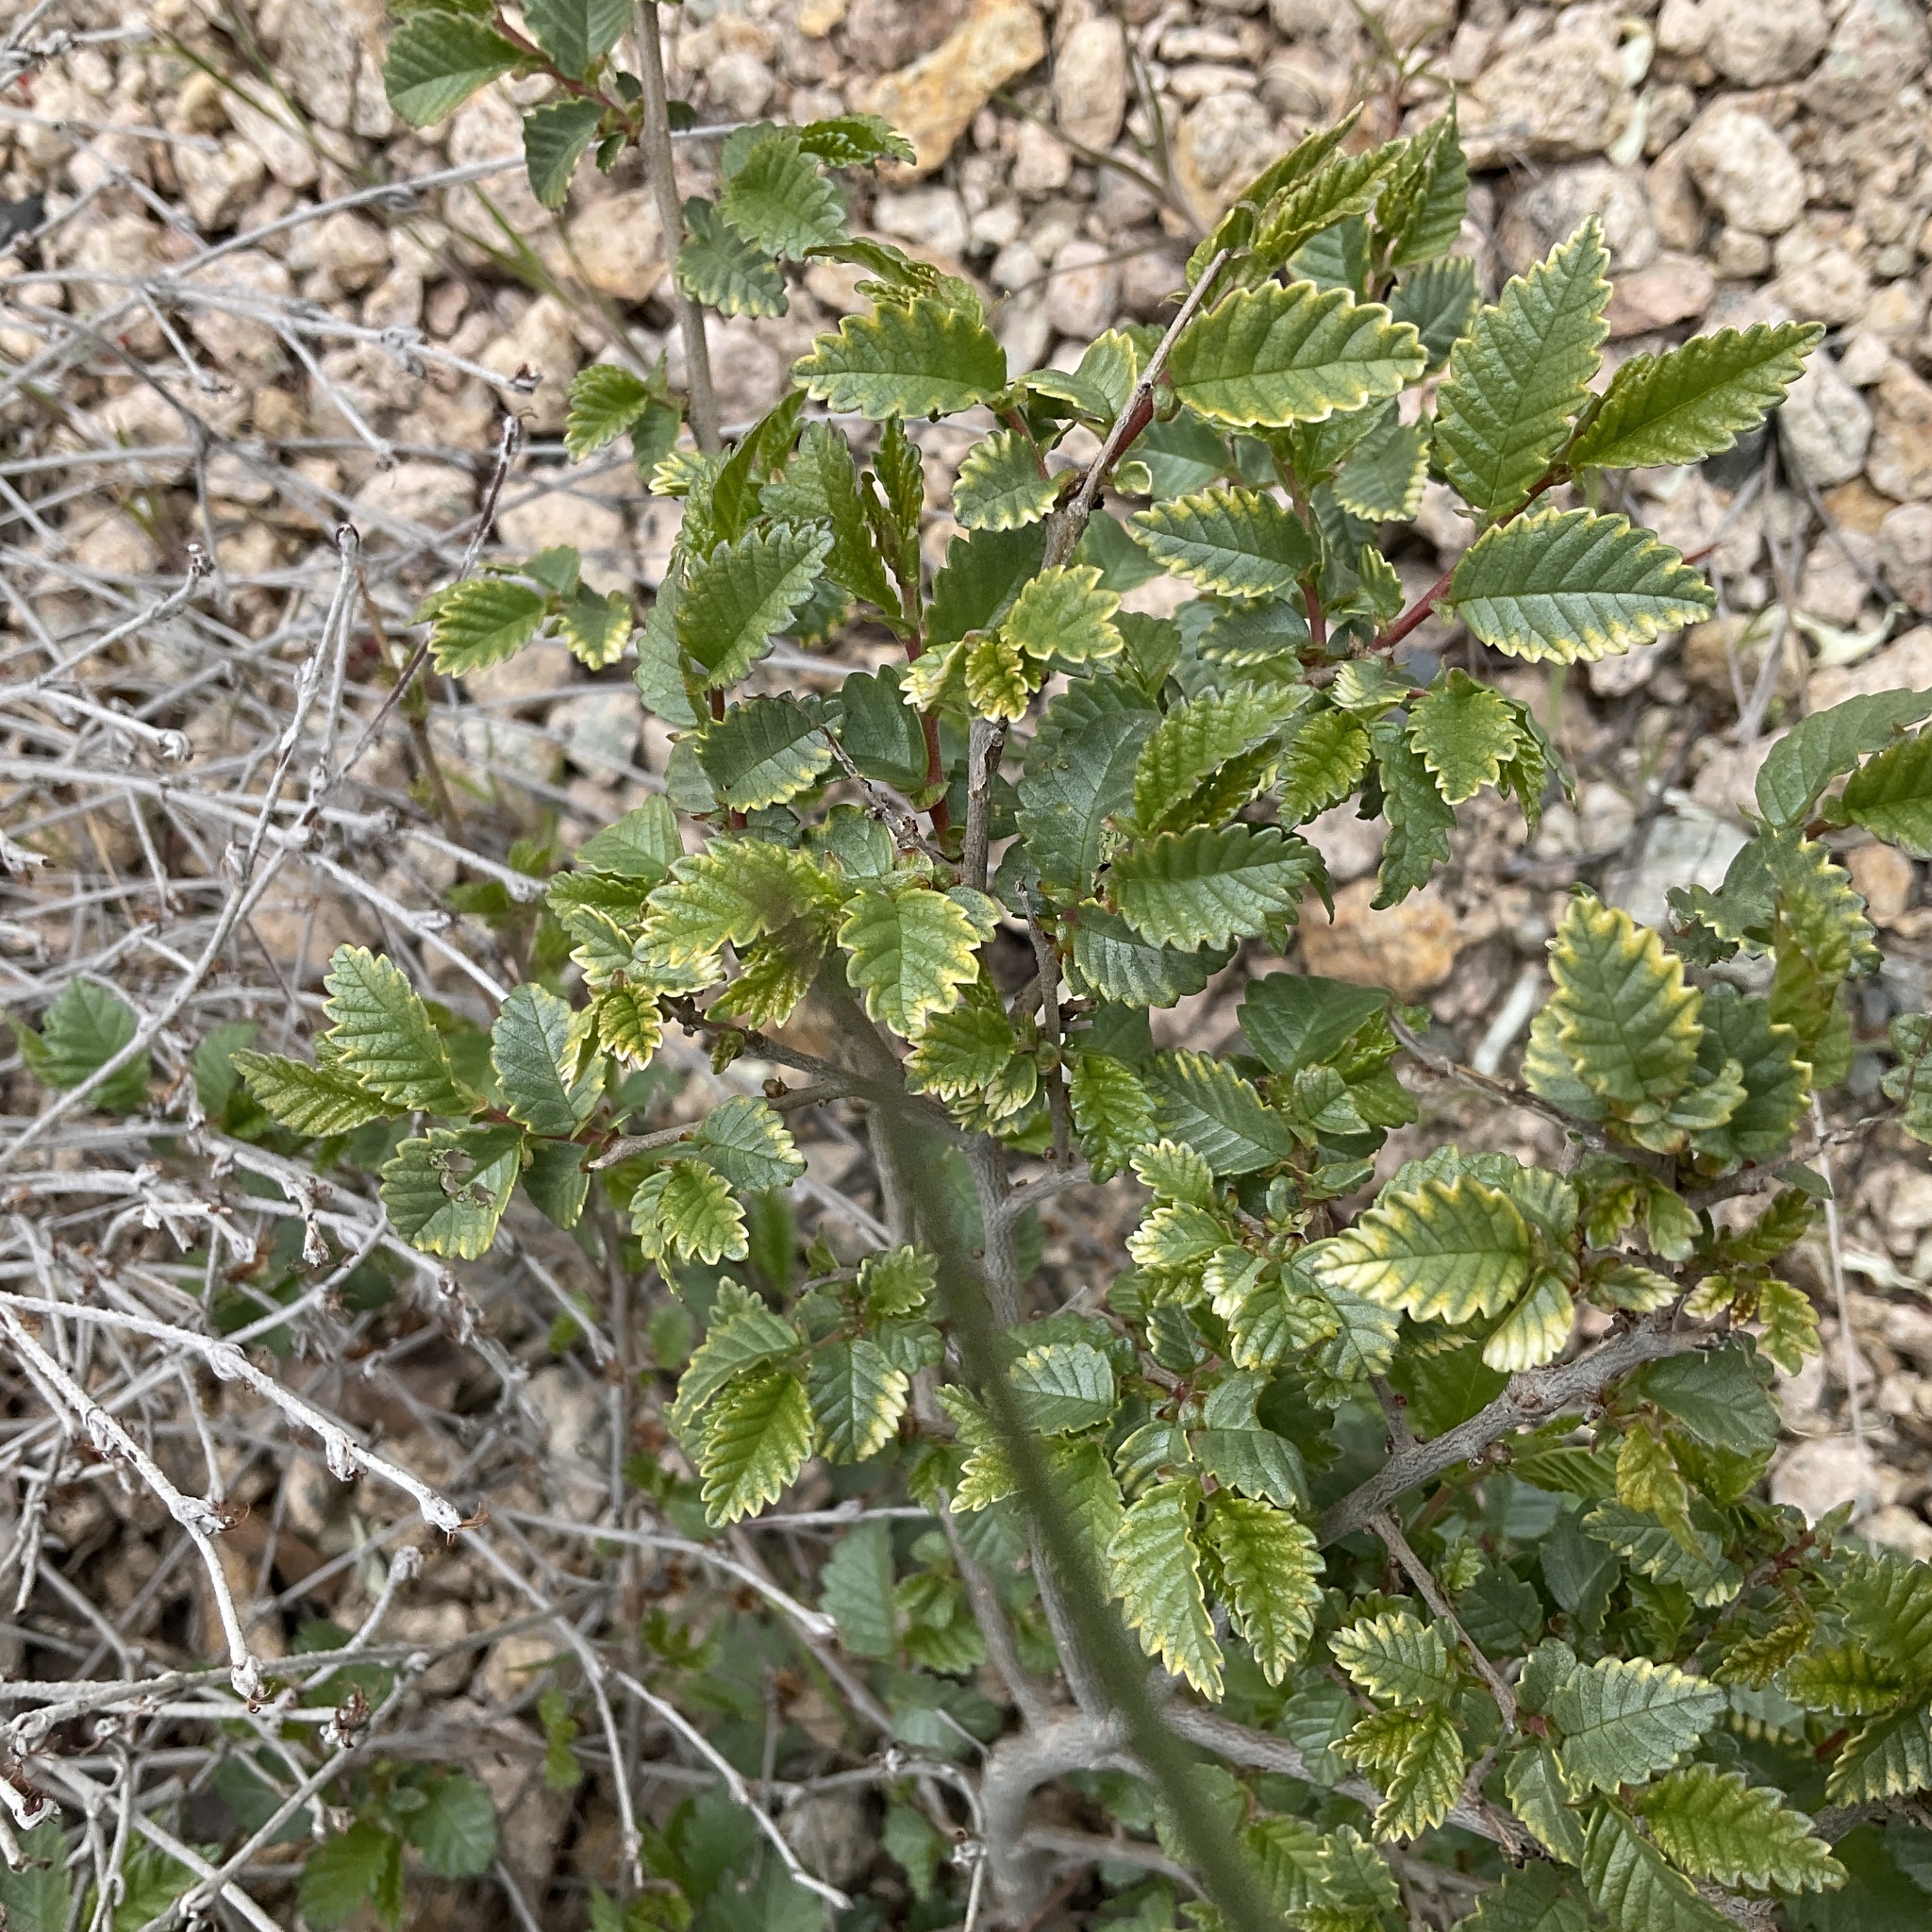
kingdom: Plantae
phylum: Tracheophyta
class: Magnoliopsida
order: Rosales
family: Ulmaceae
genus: Ulmus
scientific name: Ulmus pumila
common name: Siberian elm
